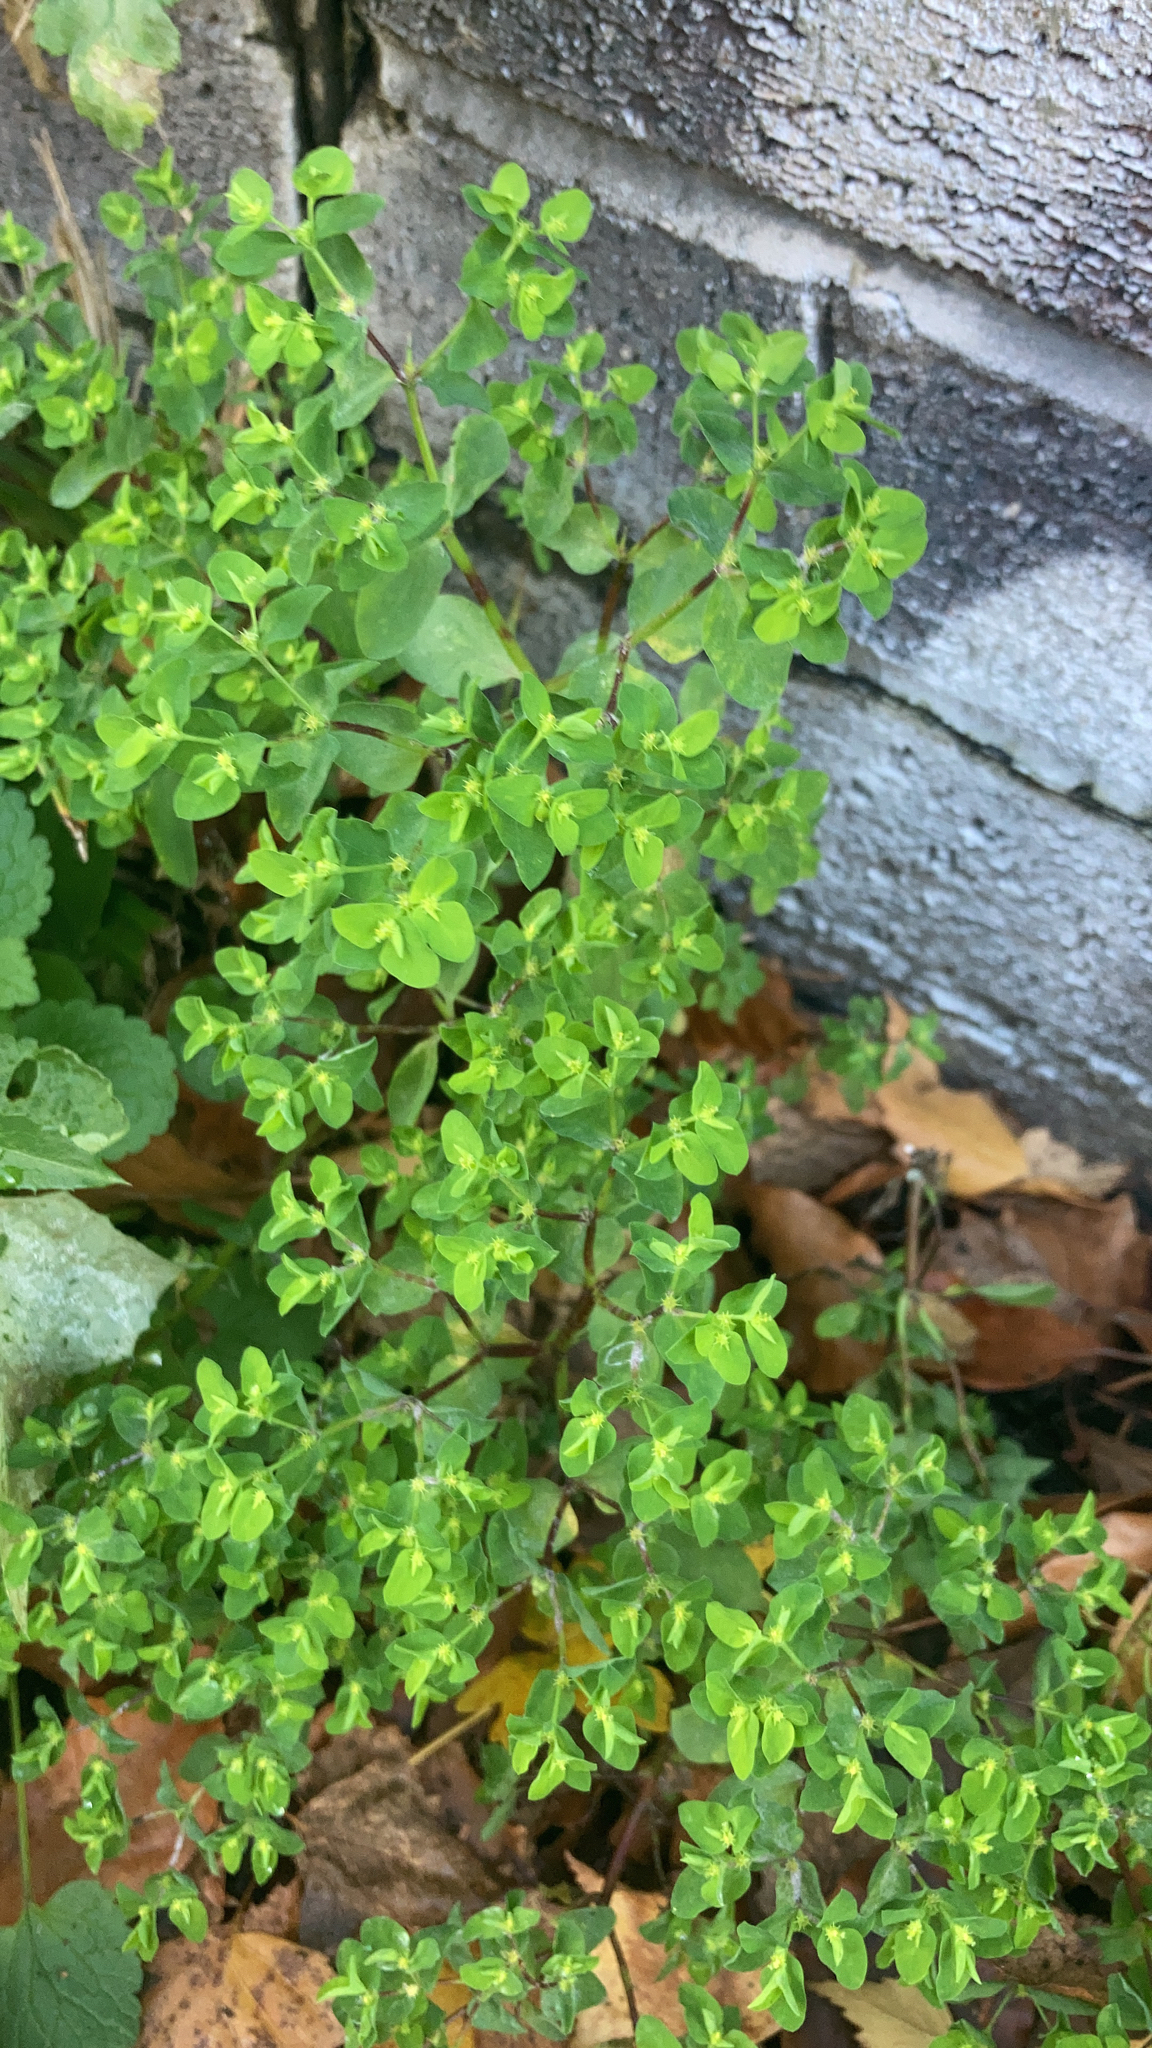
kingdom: Plantae
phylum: Tracheophyta
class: Magnoliopsida
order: Malpighiales
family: Euphorbiaceae
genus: Euphorbia
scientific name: Euphorbia peplus
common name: Petty spurge
